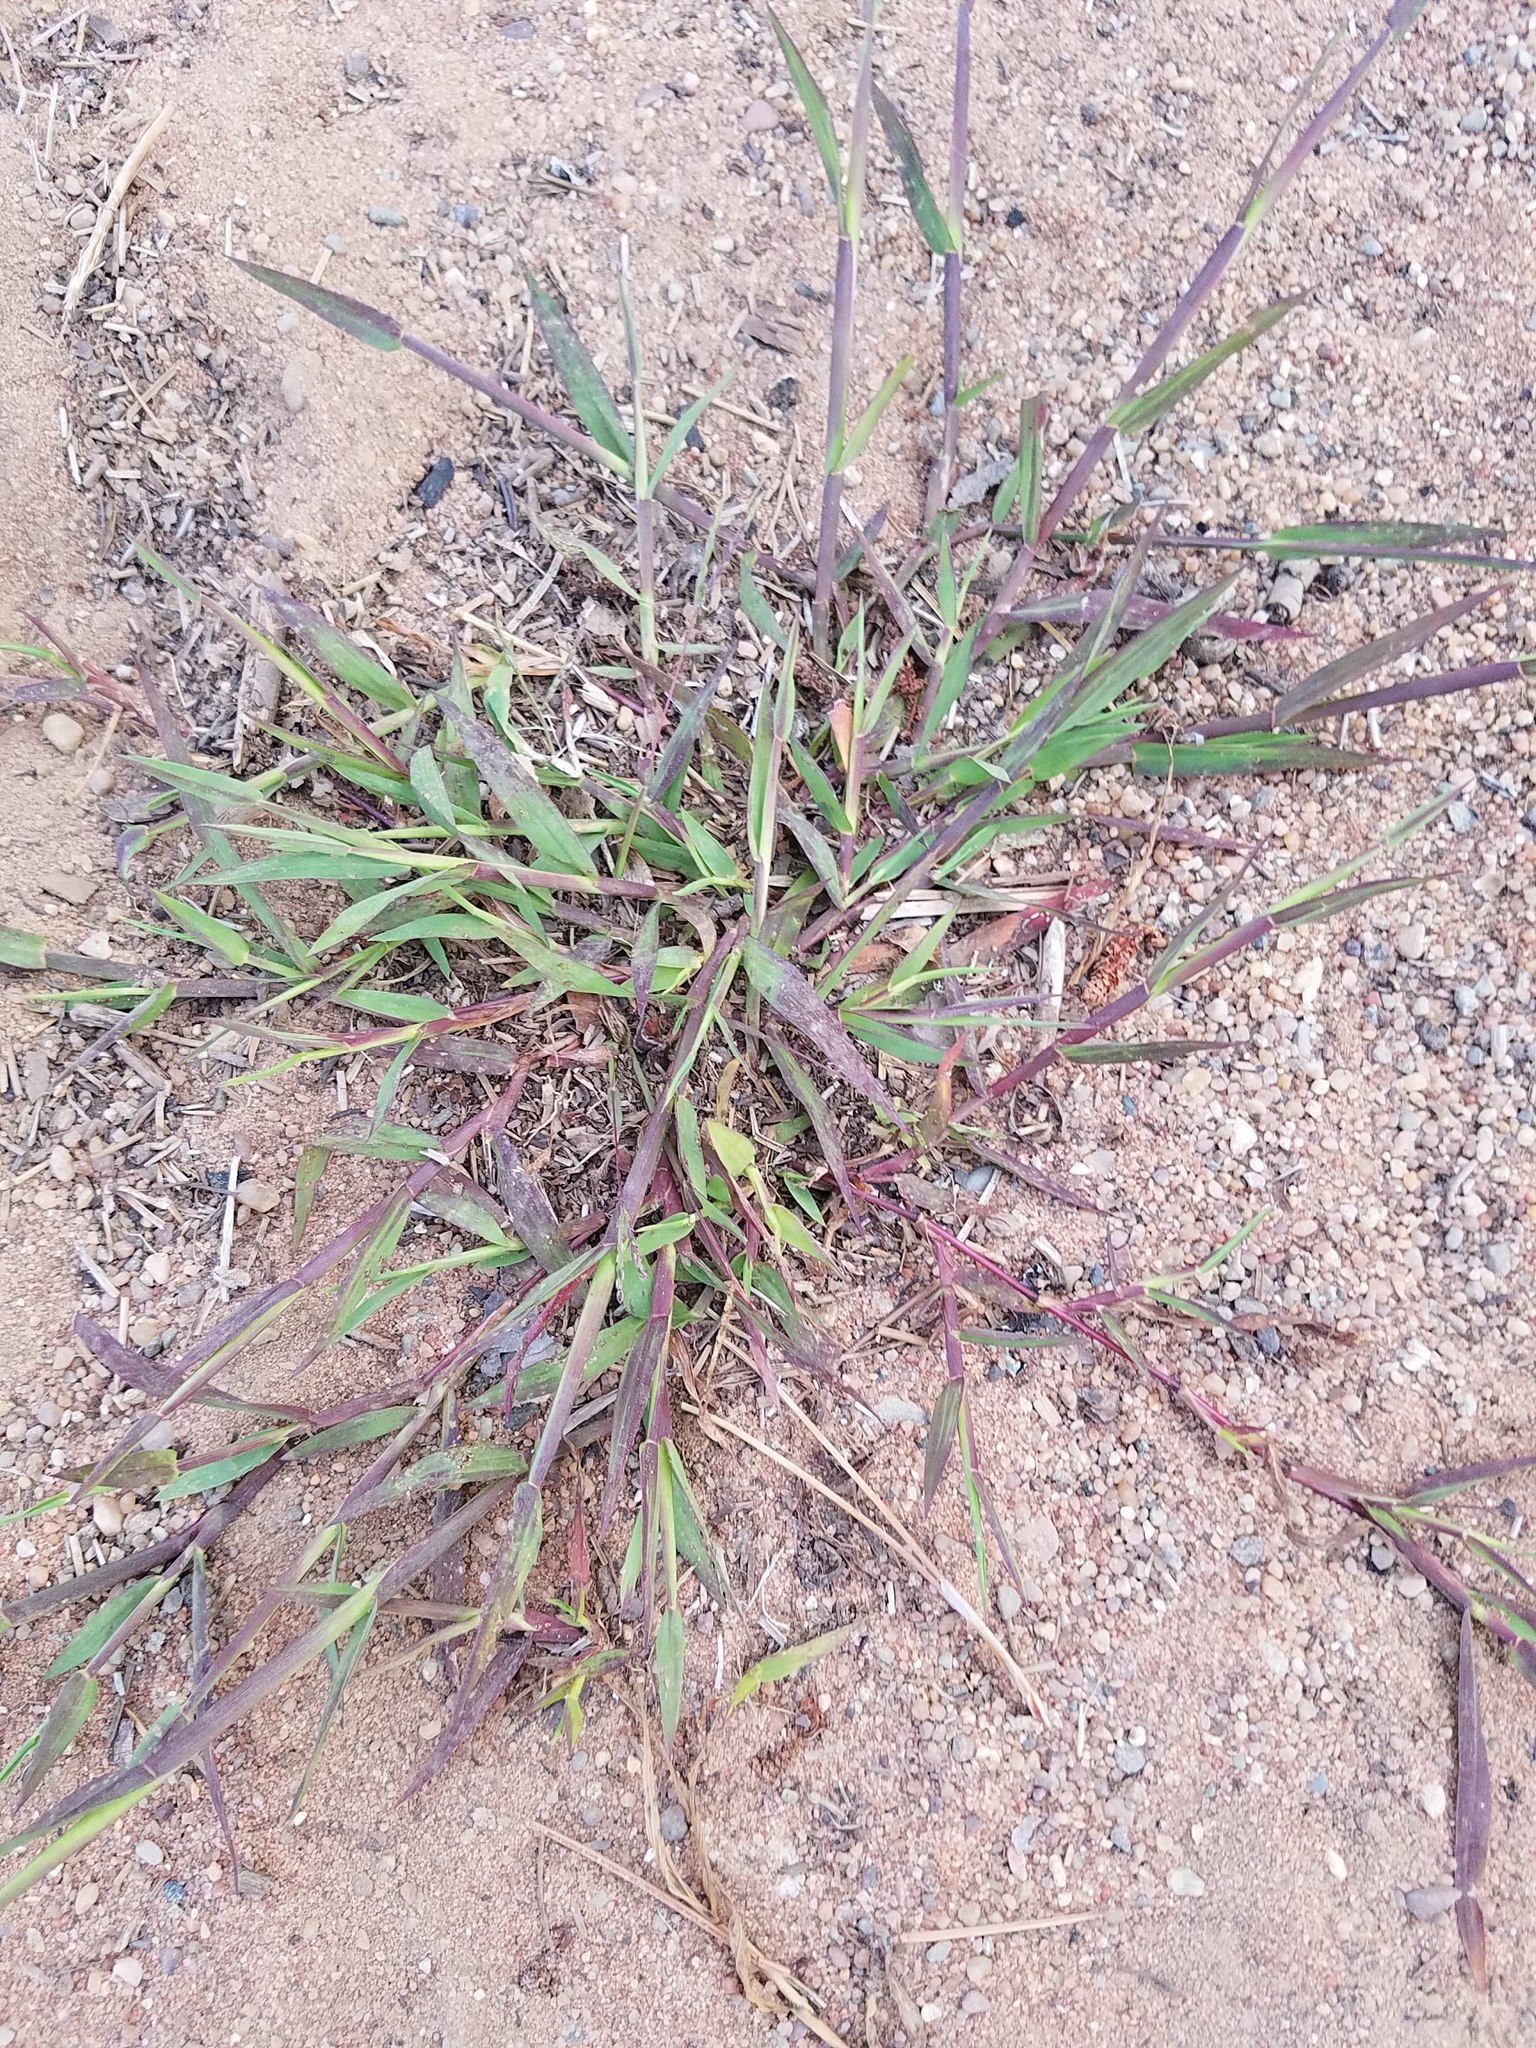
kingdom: Plantae
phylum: Tracheophyta
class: Liliopsida
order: Poales
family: Poaceae
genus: Digitaria
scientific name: Digitaria ischaemum
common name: Smooth crabgrass
